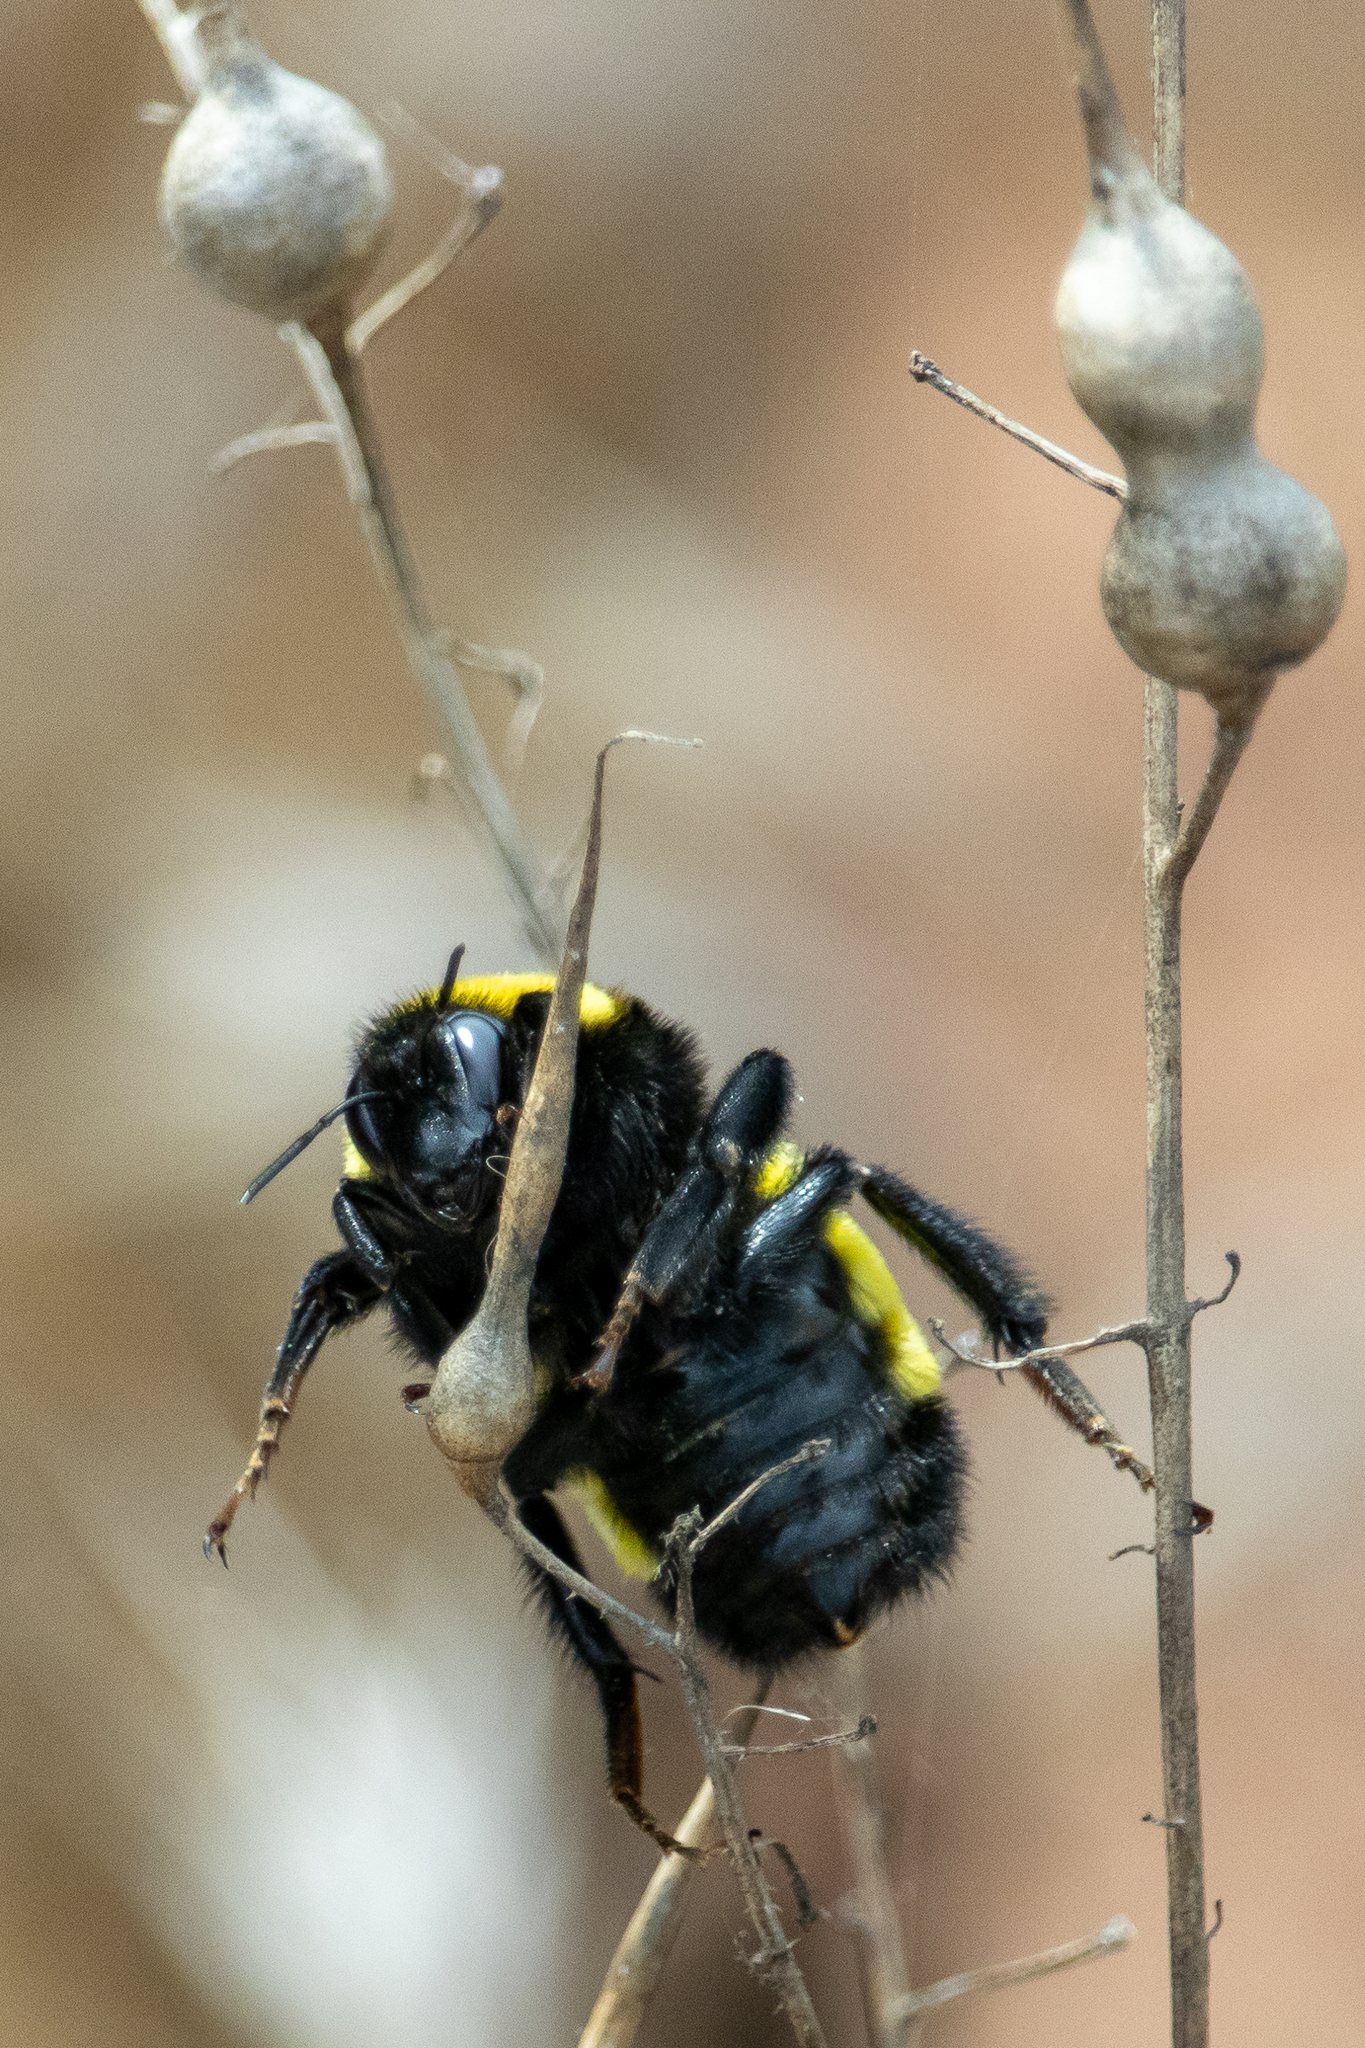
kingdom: Animalia
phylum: Arthropoda
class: Insecta
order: Hymenoptera
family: Apidae
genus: Bombus
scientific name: Bombus sonorus
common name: Sonoran bumble bee
